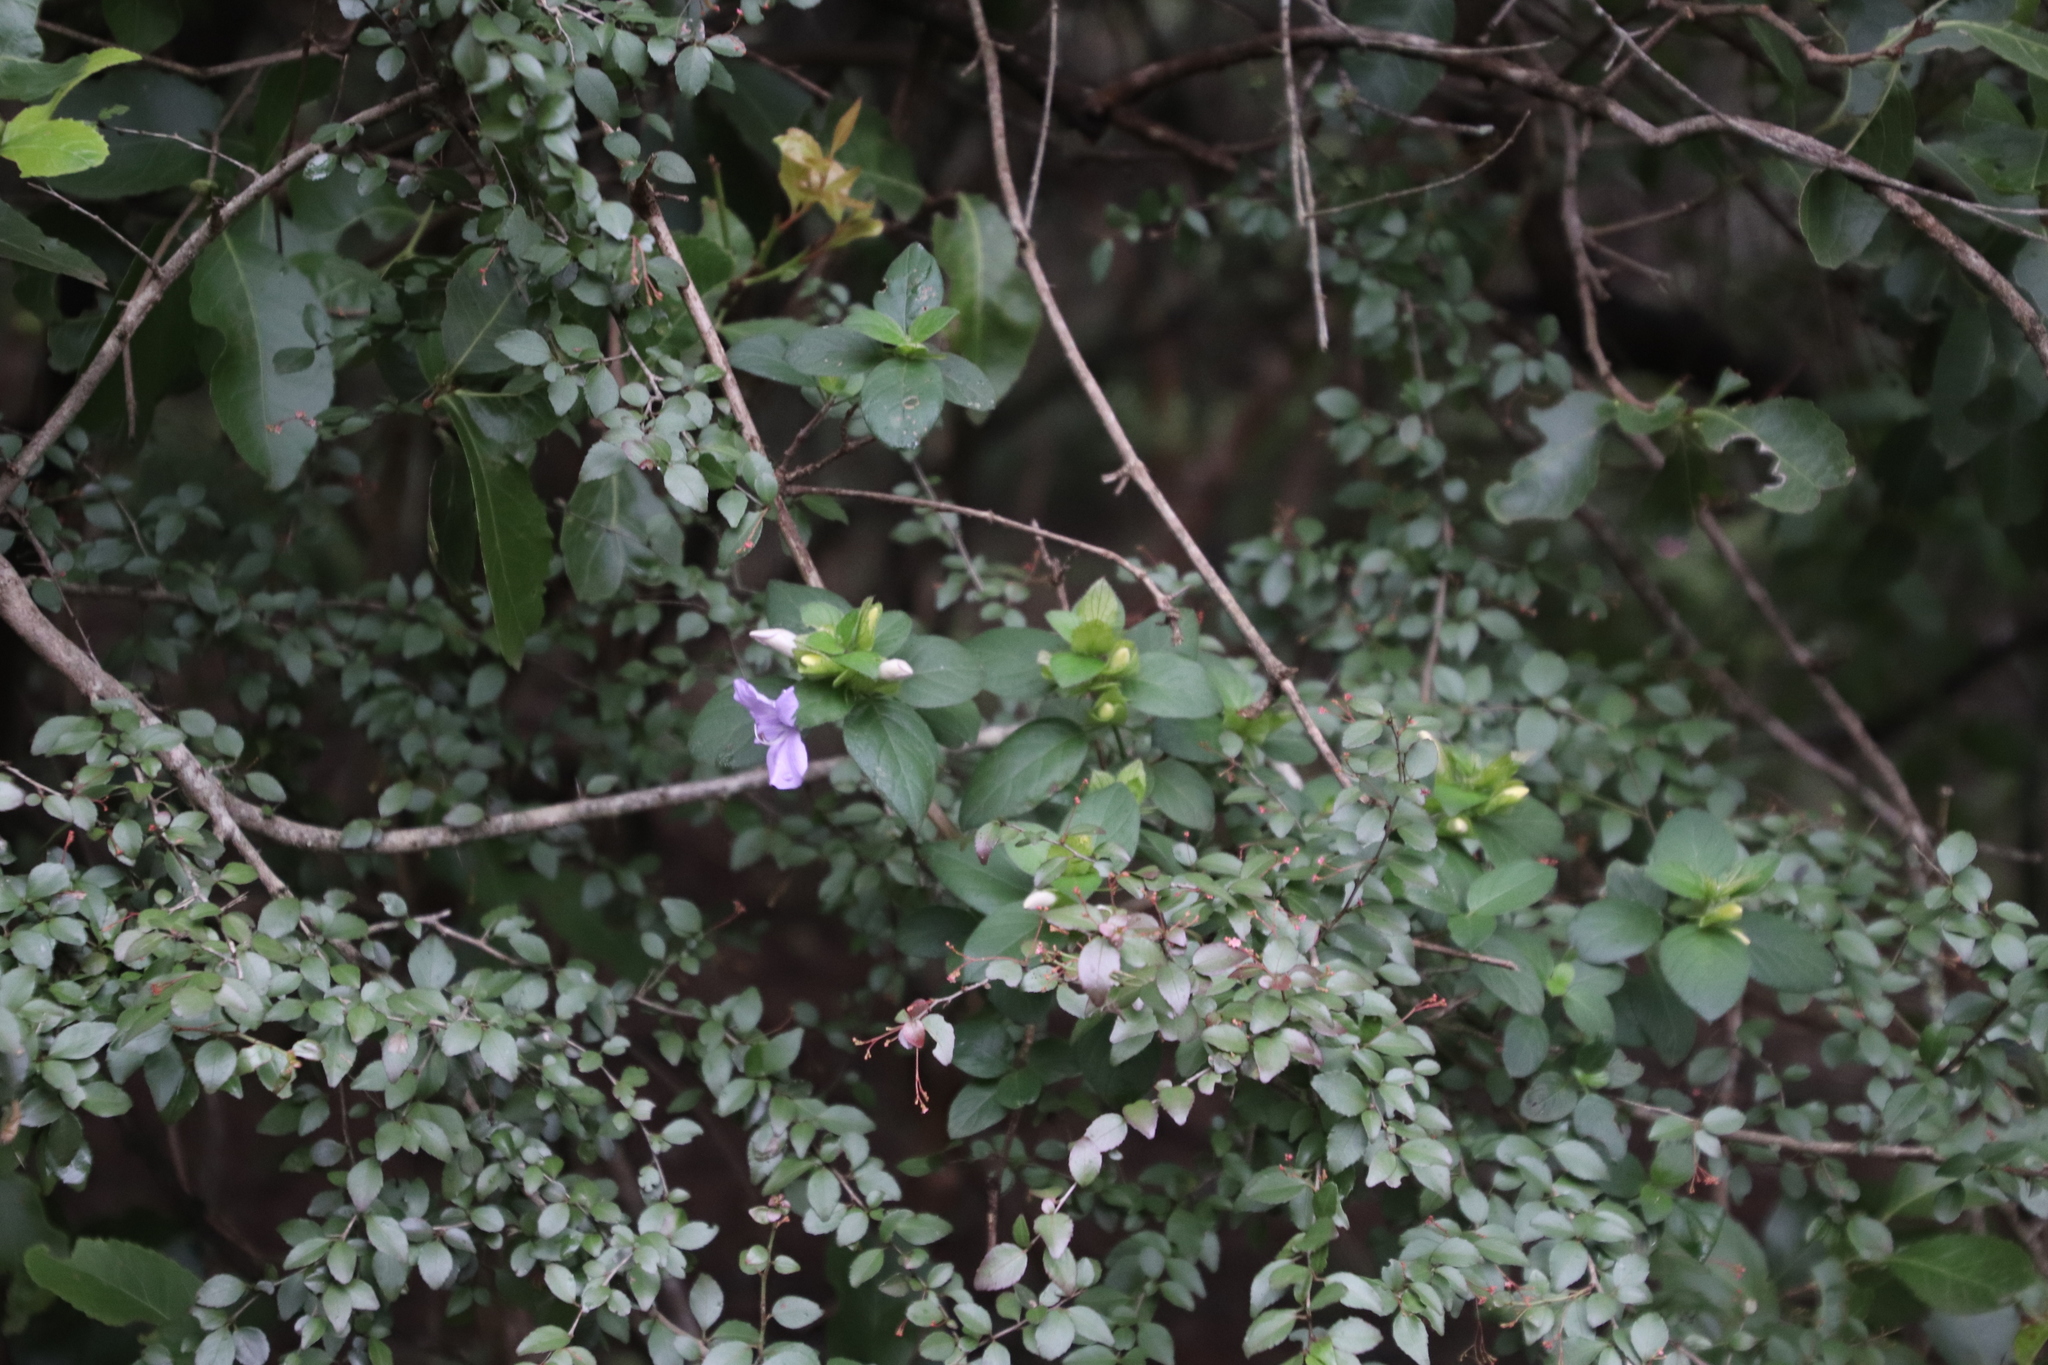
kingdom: Plantae
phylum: Tracheophyta
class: Magnoliopsida
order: Lamiales
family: Acanthaceae
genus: Barleria
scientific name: Barleria gueinzii
